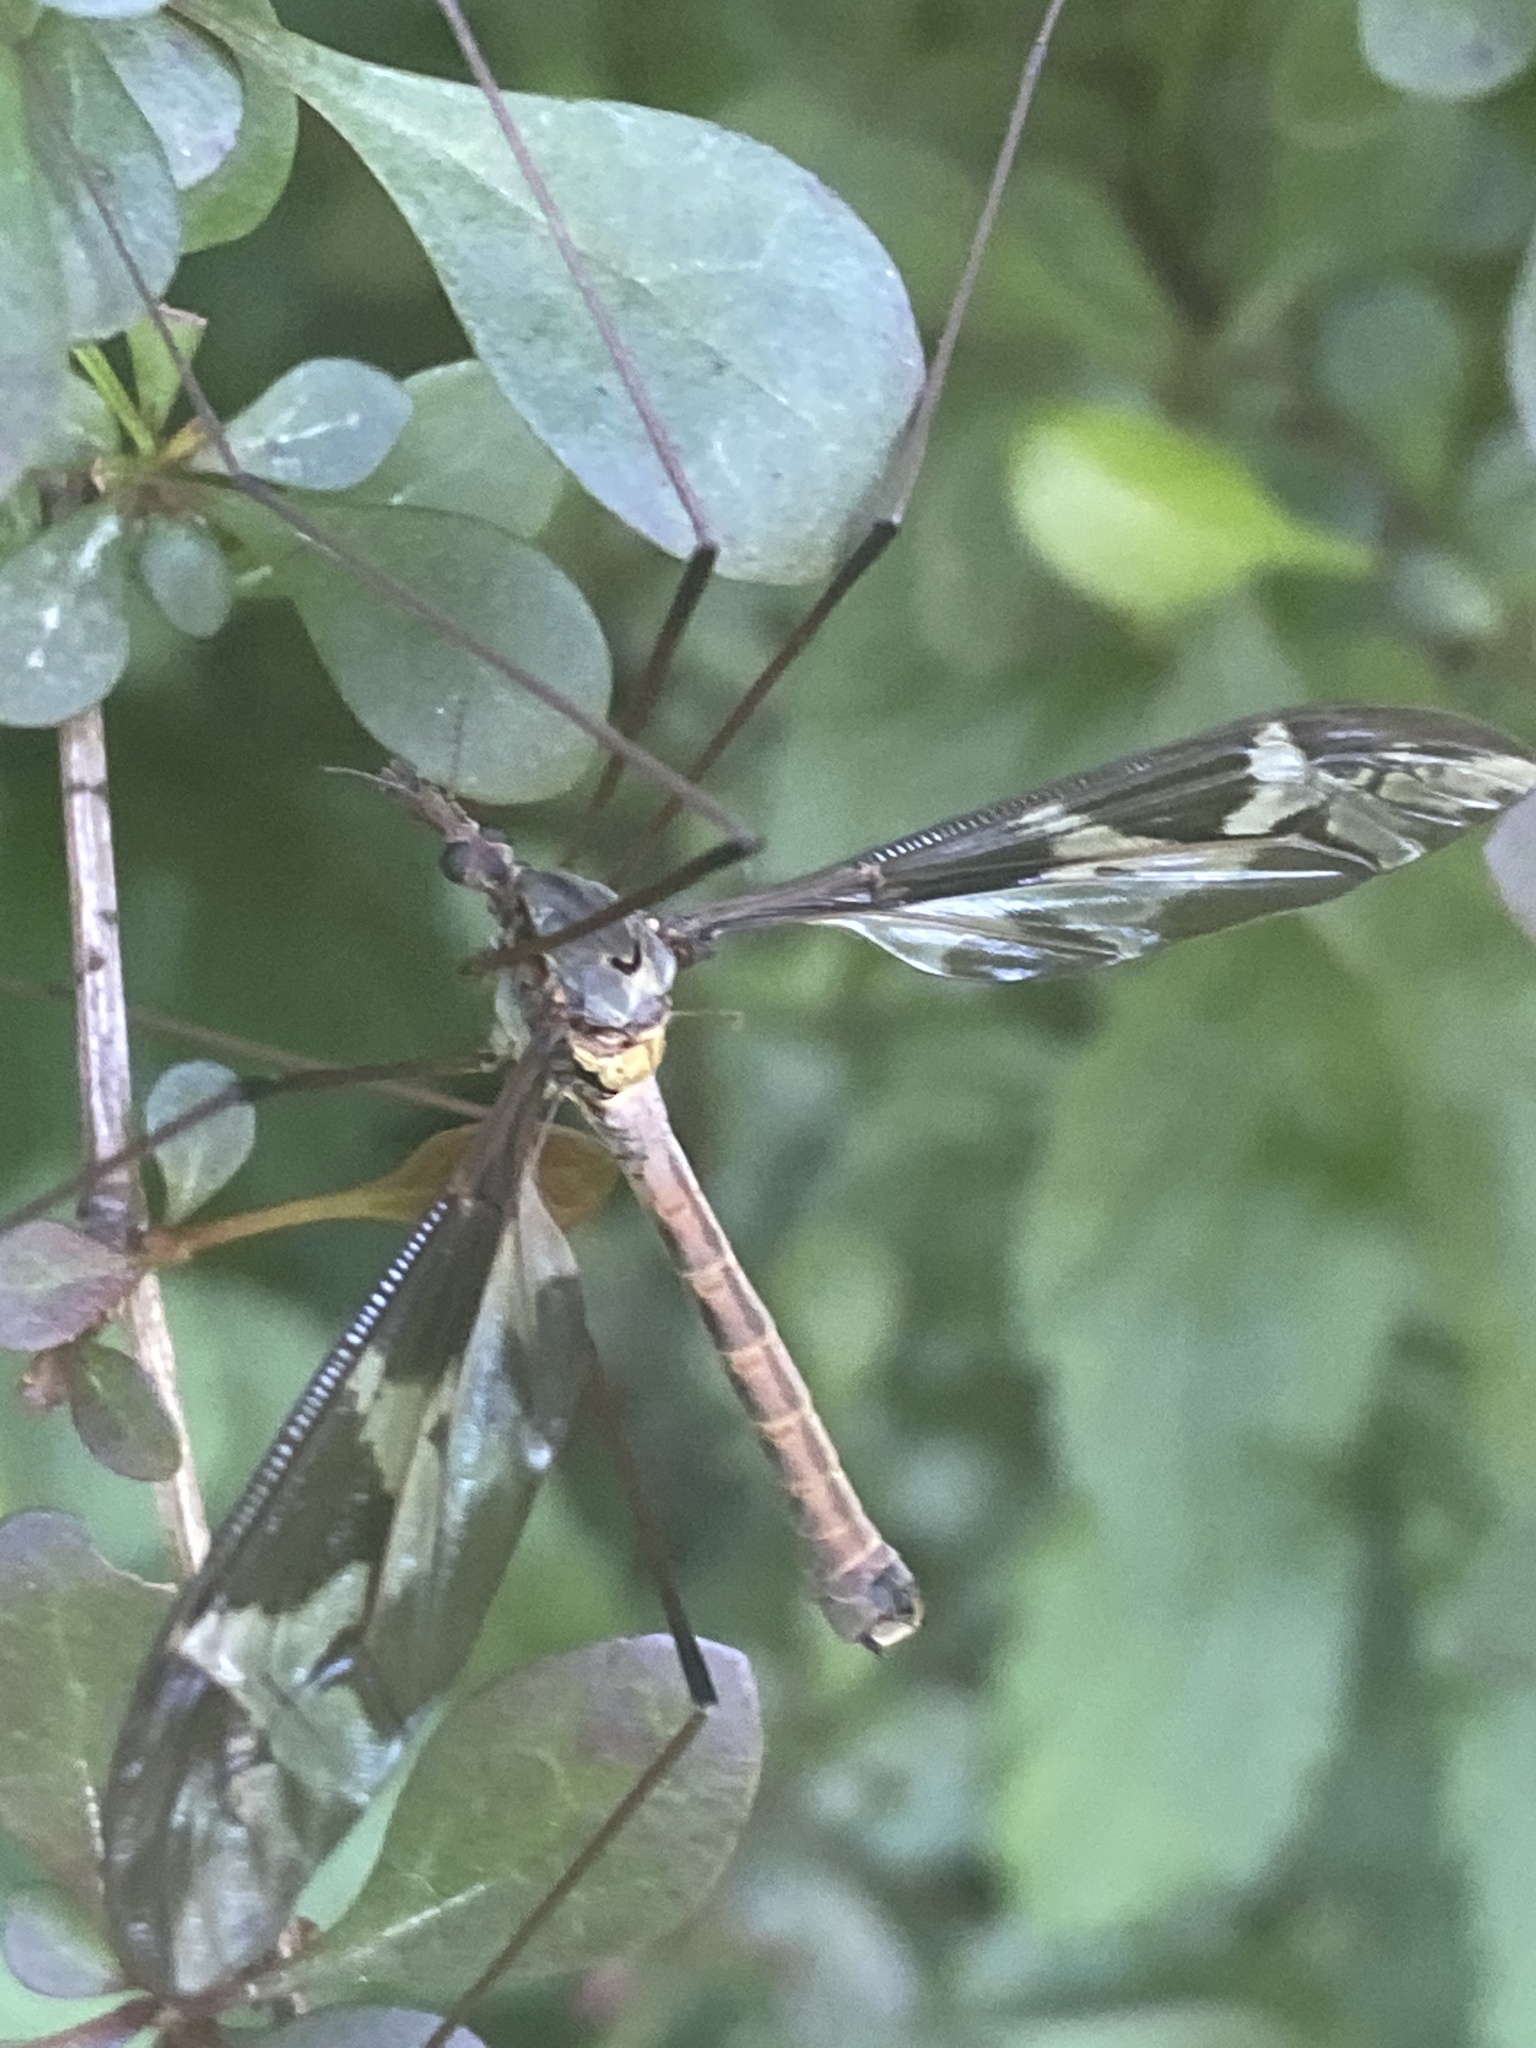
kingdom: Animalia
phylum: Arthropoda
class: Insecta
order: Diptera
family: Tipulidae
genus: Tipula
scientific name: Tipula maxima
